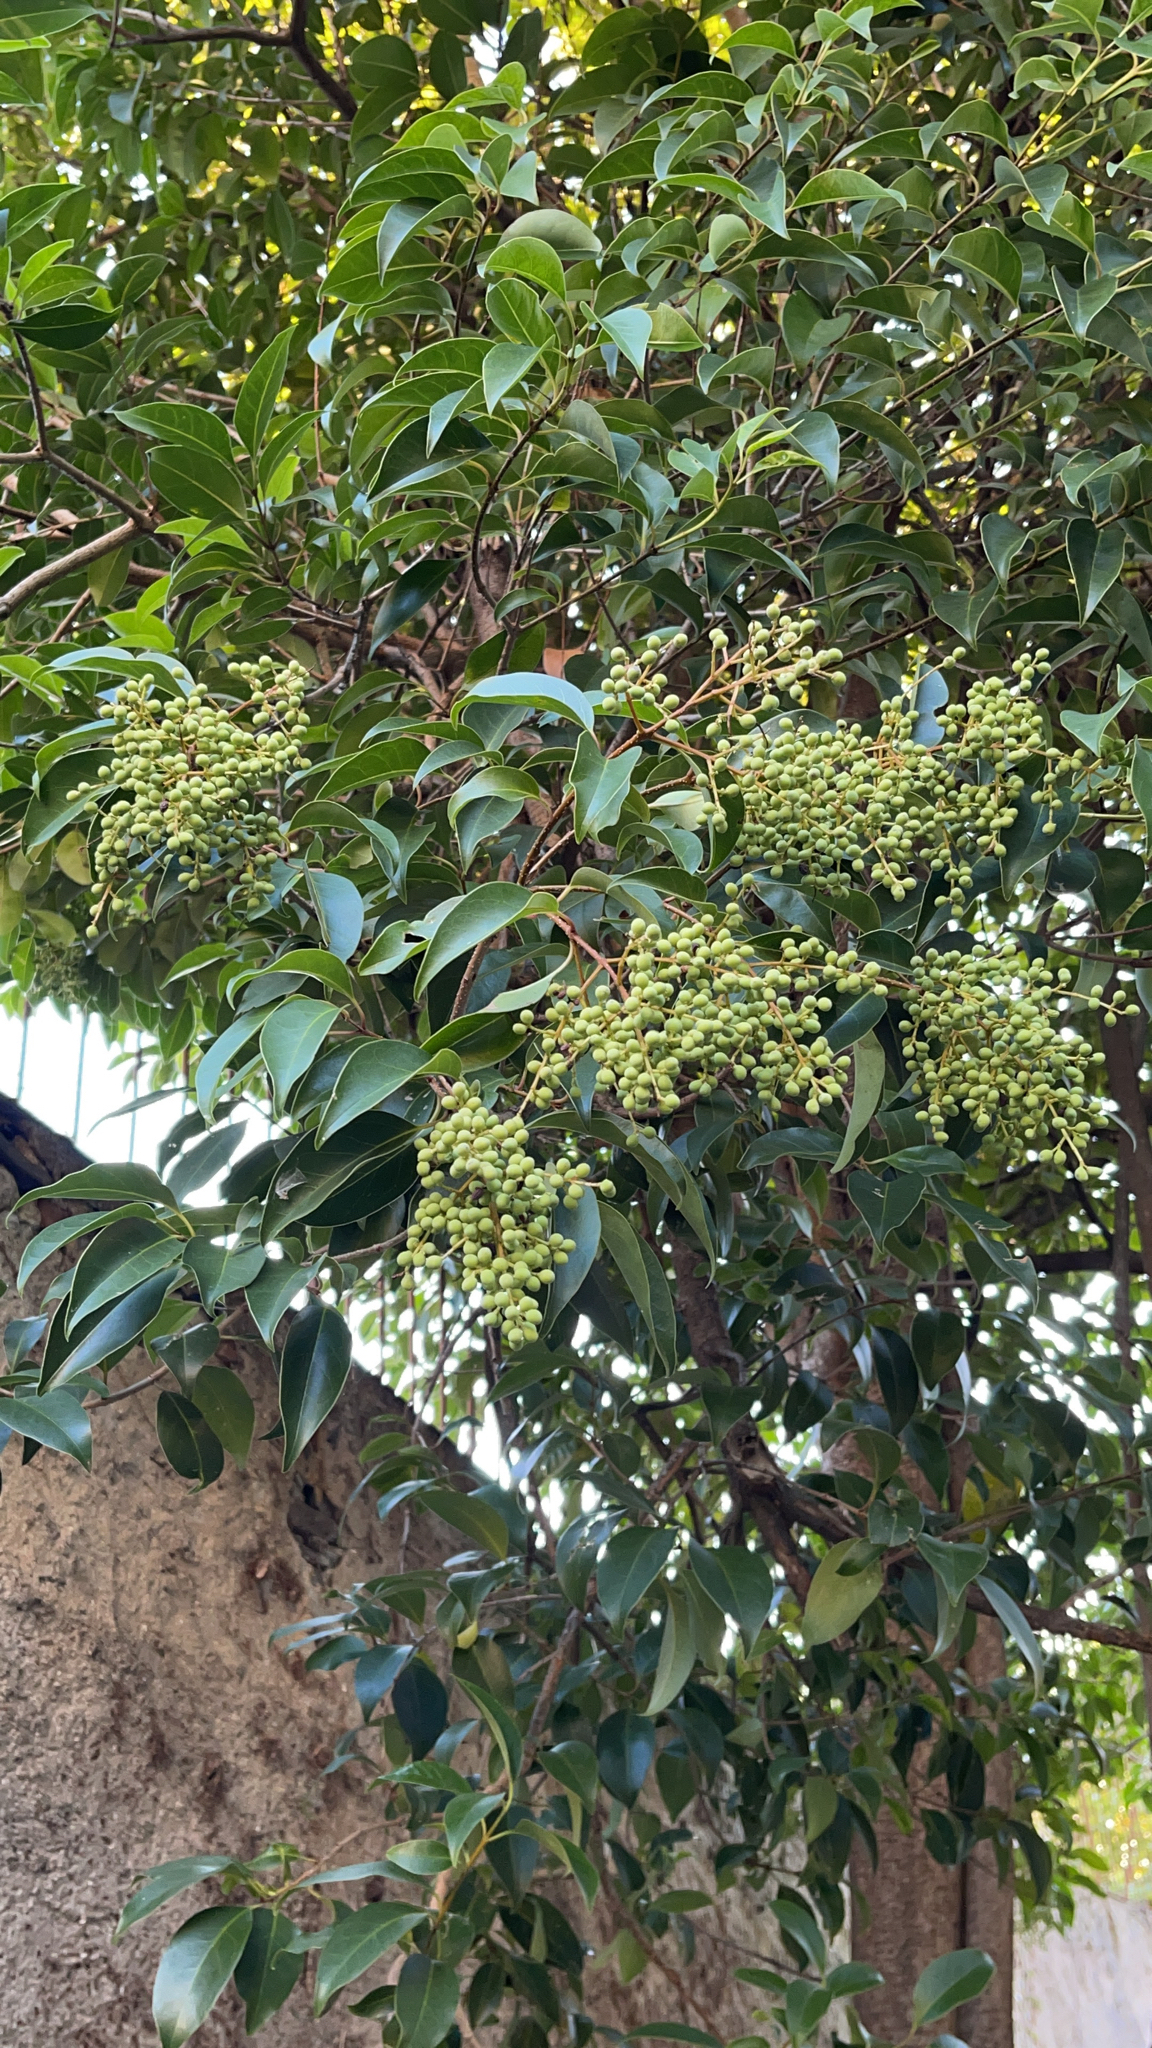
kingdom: Plantae
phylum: Tracheophyta
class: Magnoliopsida
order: Lamiales
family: Oleaceae
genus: Ligustrum
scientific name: Ligustrum lucidum
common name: Glossy privet
